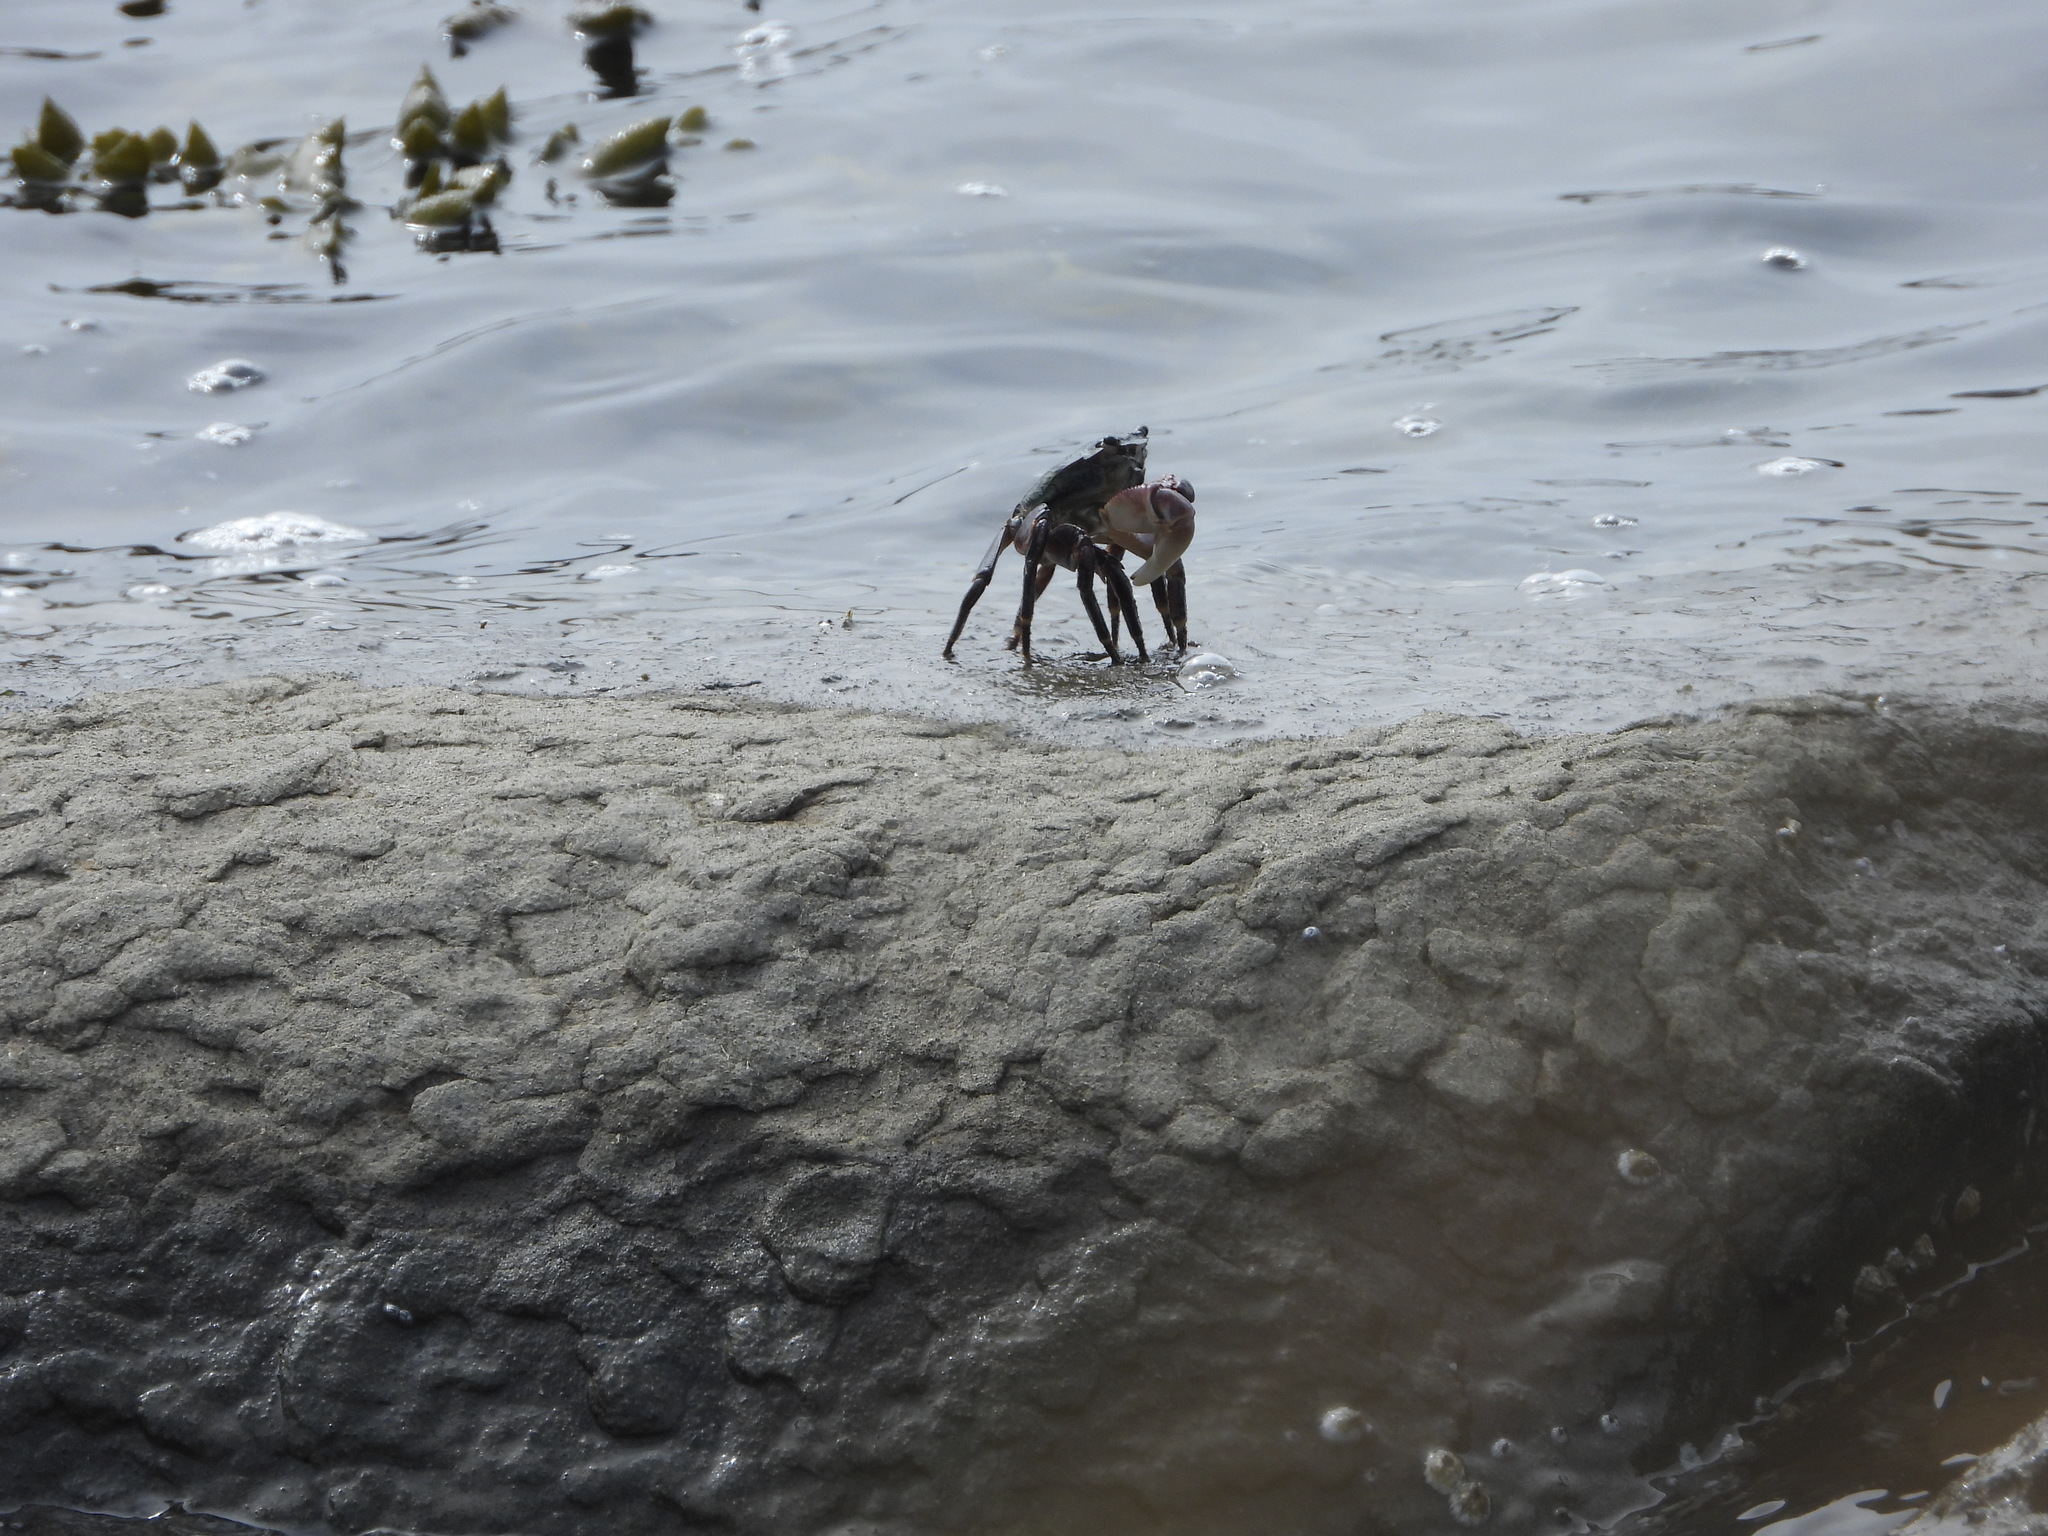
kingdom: Animalia
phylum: Arthropoda
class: Malacostraca
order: Decapoda
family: Grapsidae
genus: Pachygrapsus
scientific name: Pachygrapsus crassipes
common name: Striped shore crab
